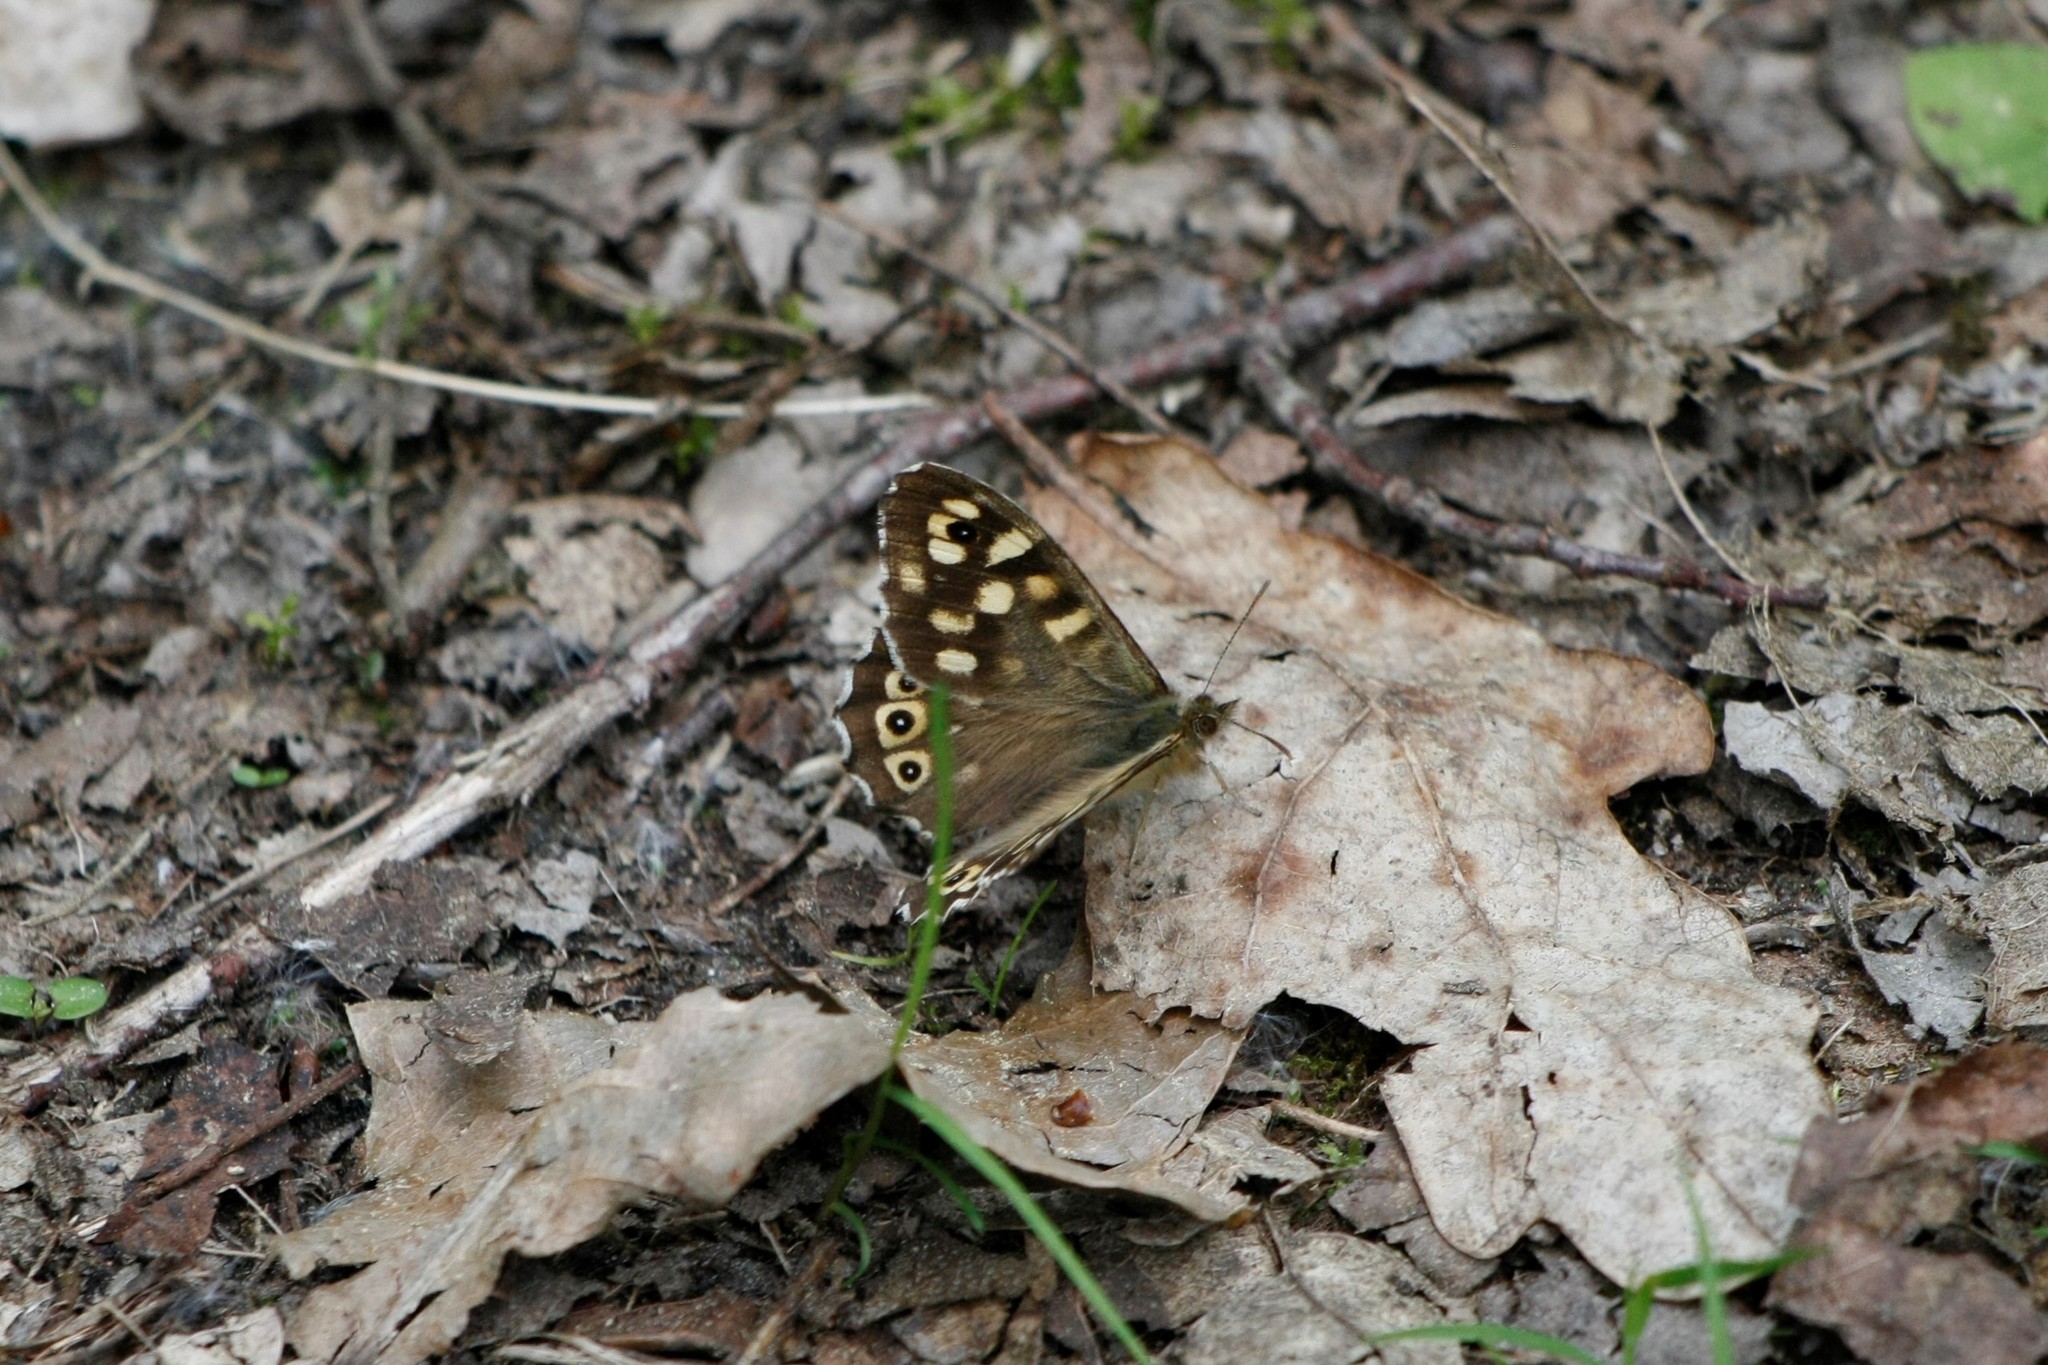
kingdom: Animalia
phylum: Arthropoda
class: Insecta
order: Lepidoptera
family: Nymphalidae
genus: Pararge
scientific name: Pararge aegeria
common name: Speckled wood
